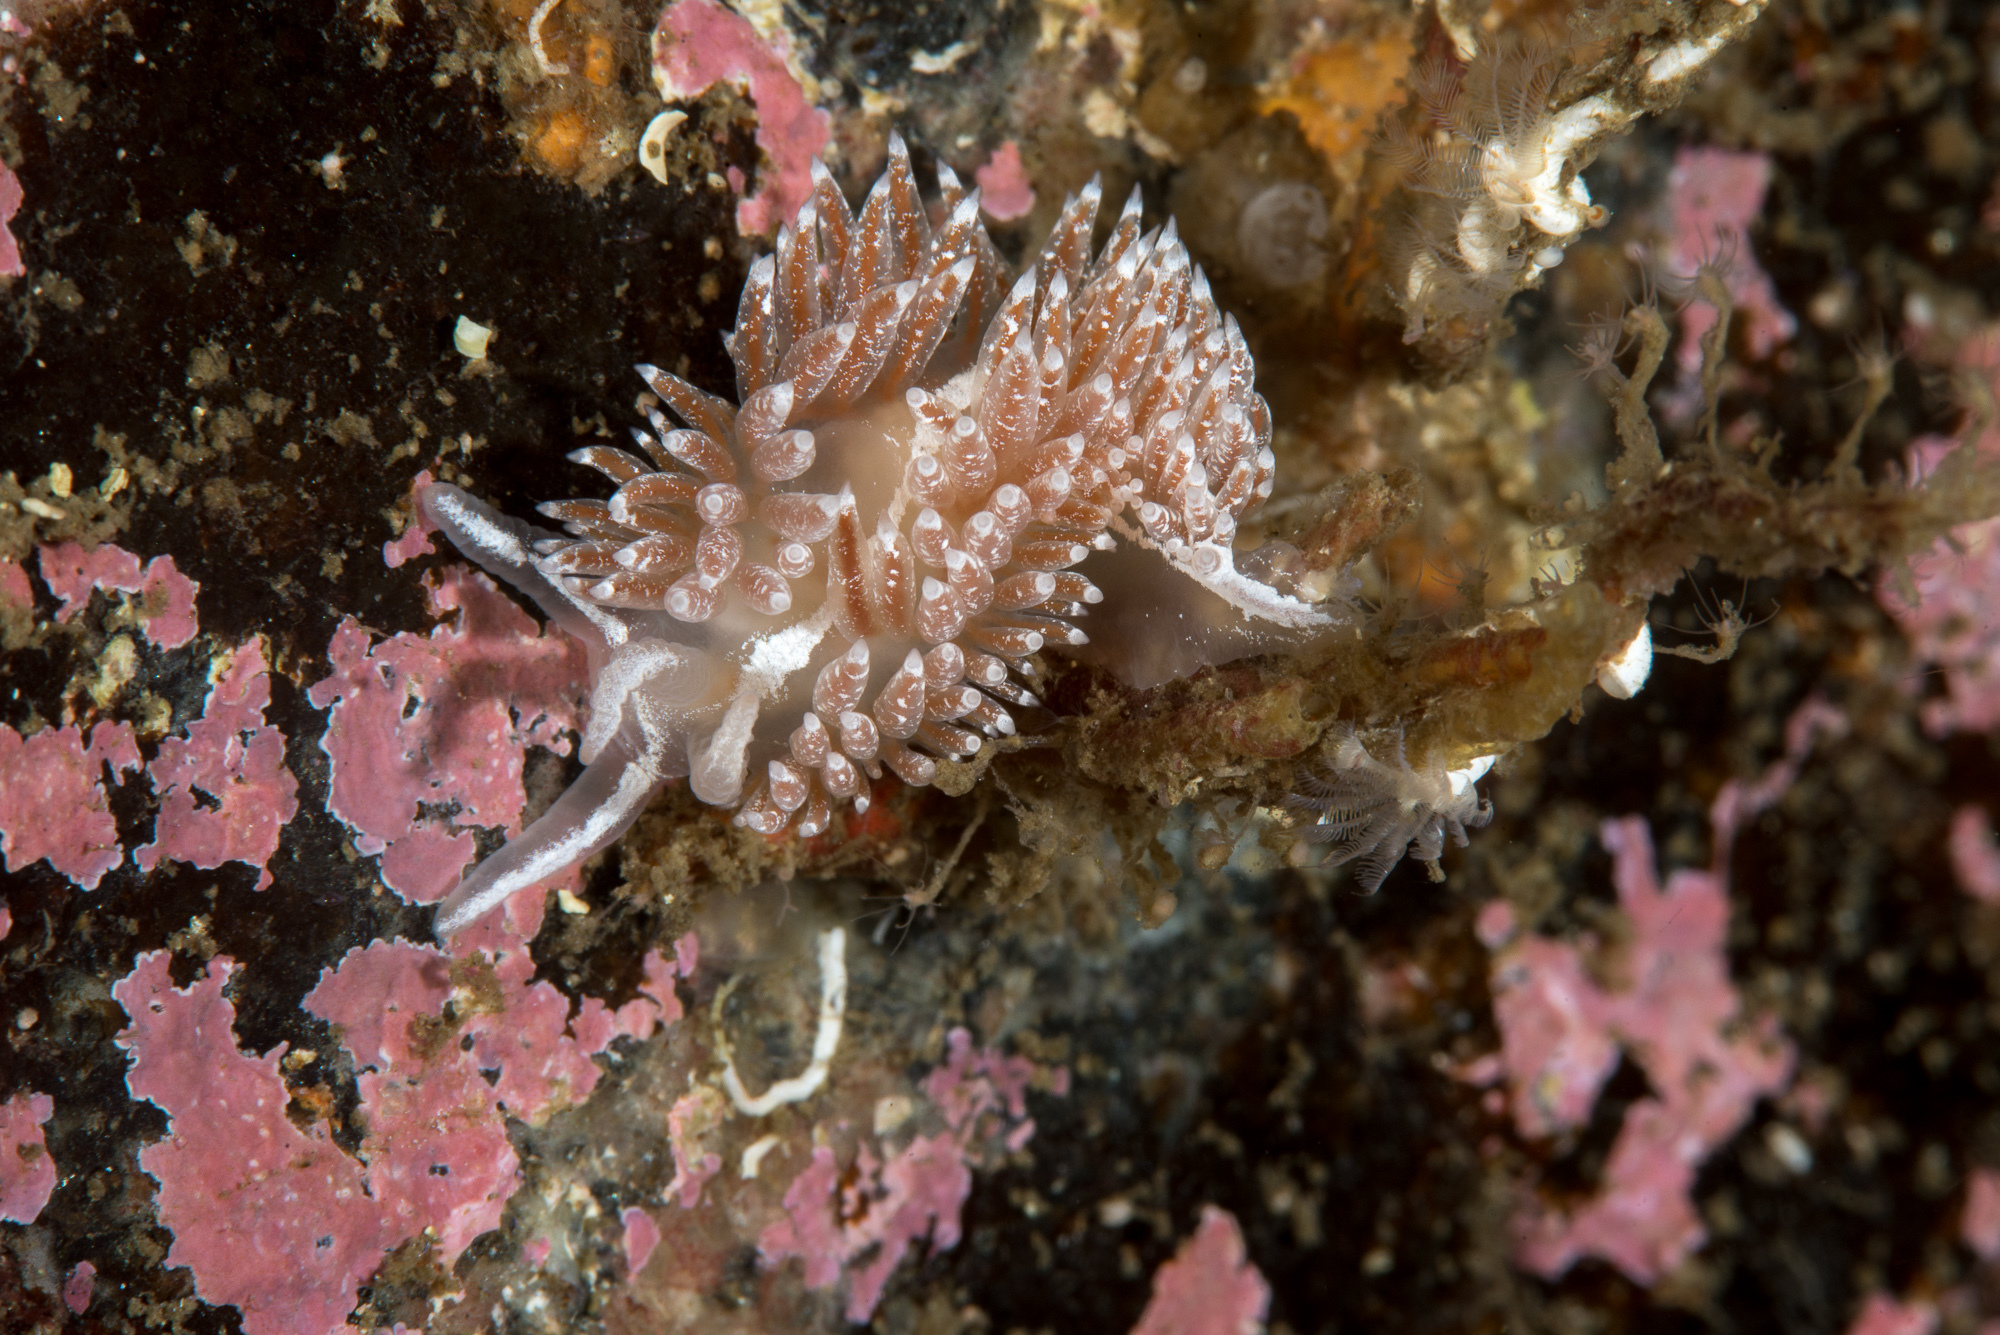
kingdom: Animalia
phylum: Mollusca
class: Gastropoda
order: Nudibranchia
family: Coryphellidae
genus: Coryphella
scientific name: Coryphella orjani
